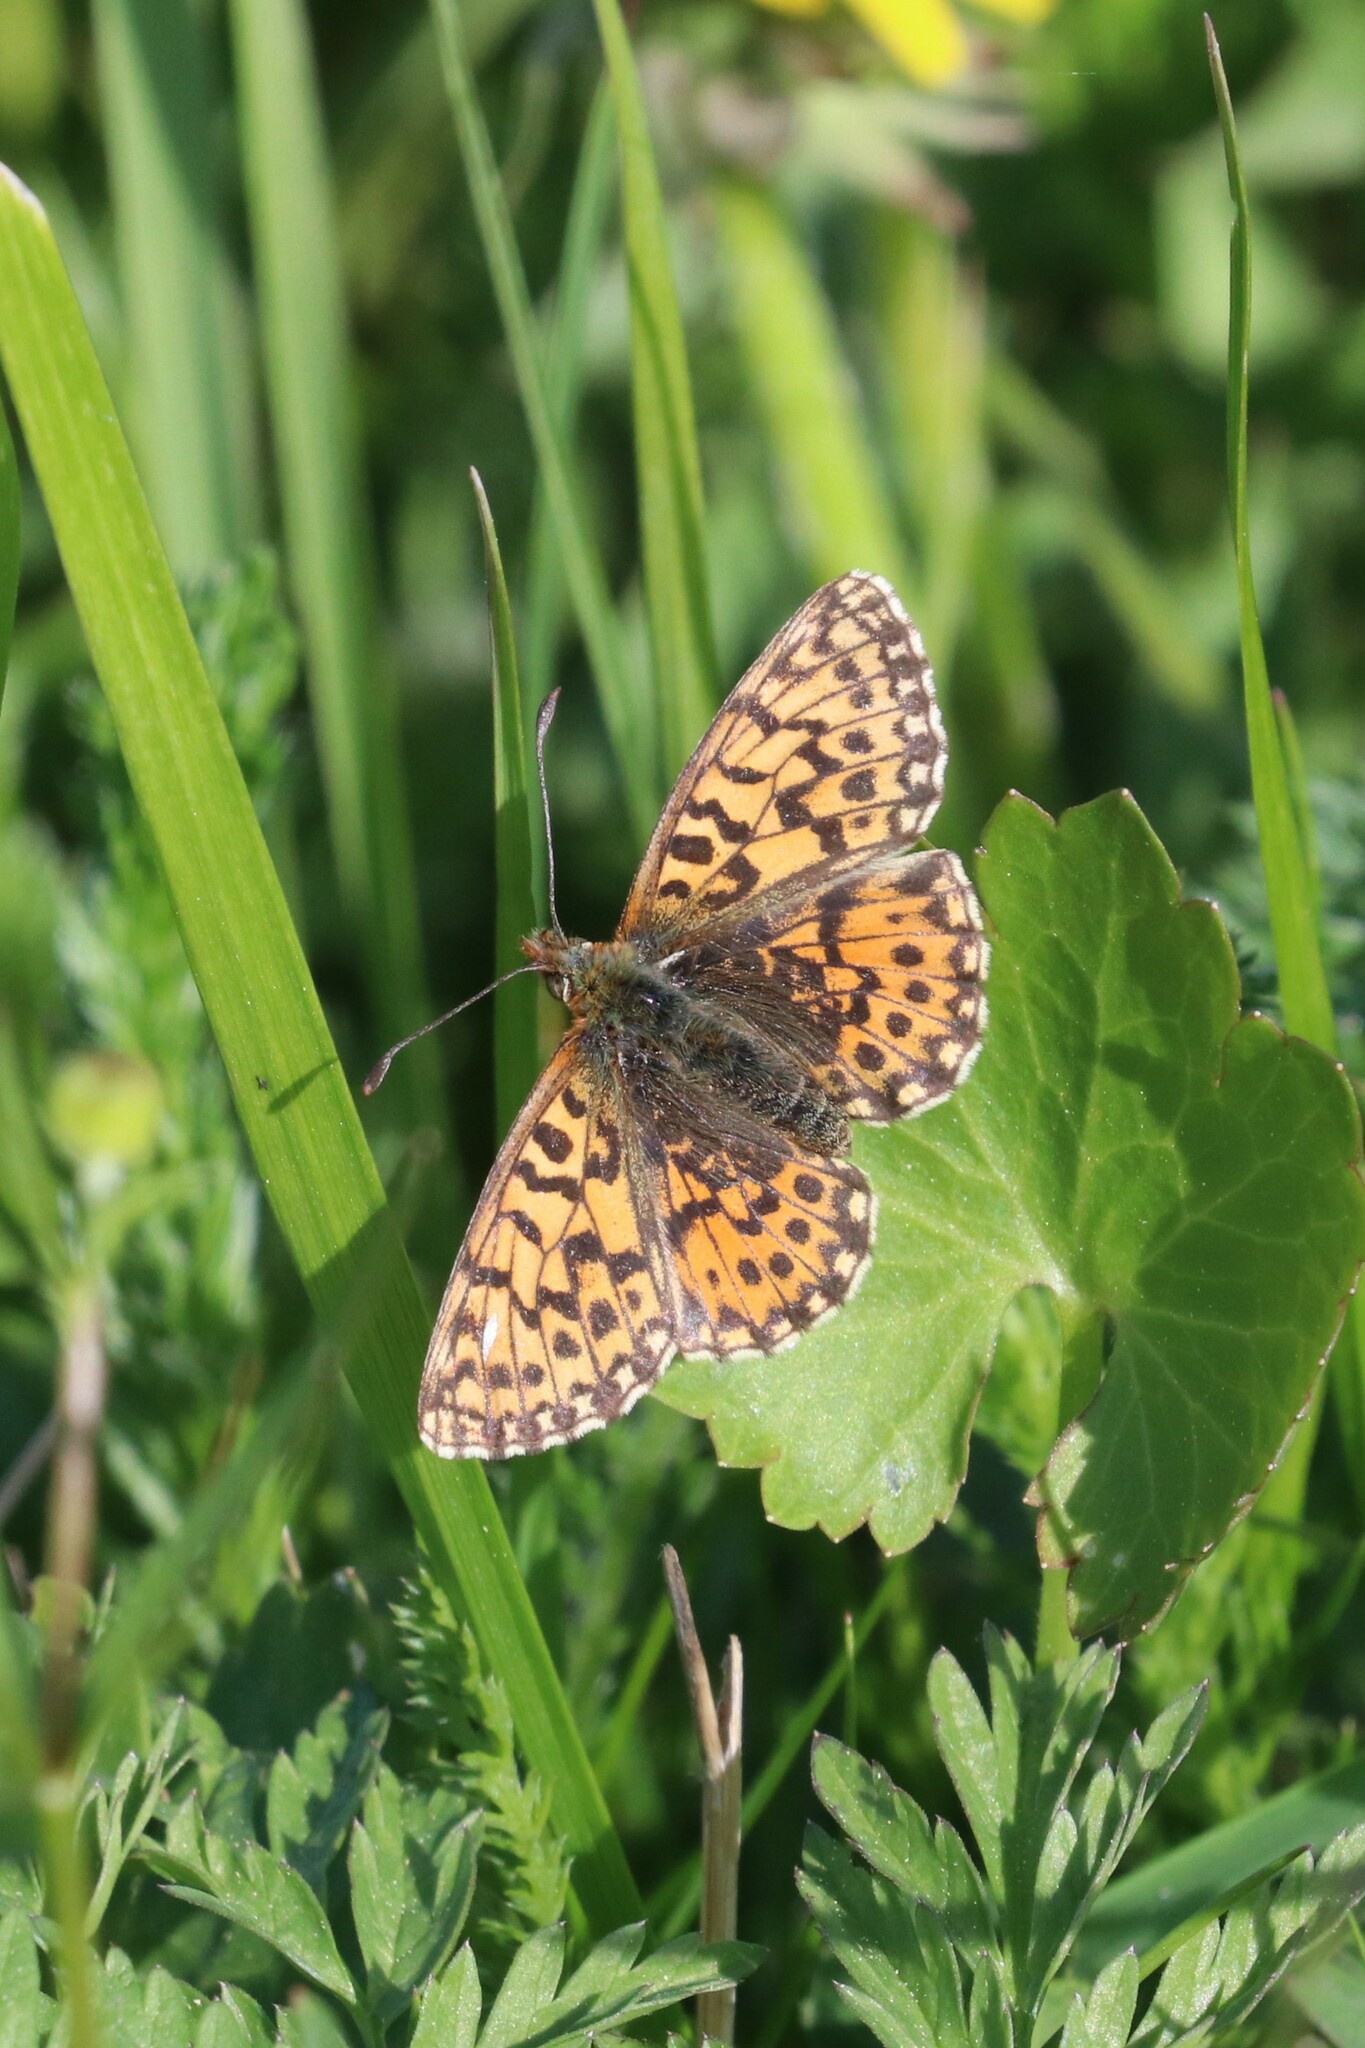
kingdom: Animalia
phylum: Arthropoda
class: Insecta
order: Lepidoptera
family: Nymphalidae
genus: Boloria
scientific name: Boloria dia
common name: Weaver's fritillary
